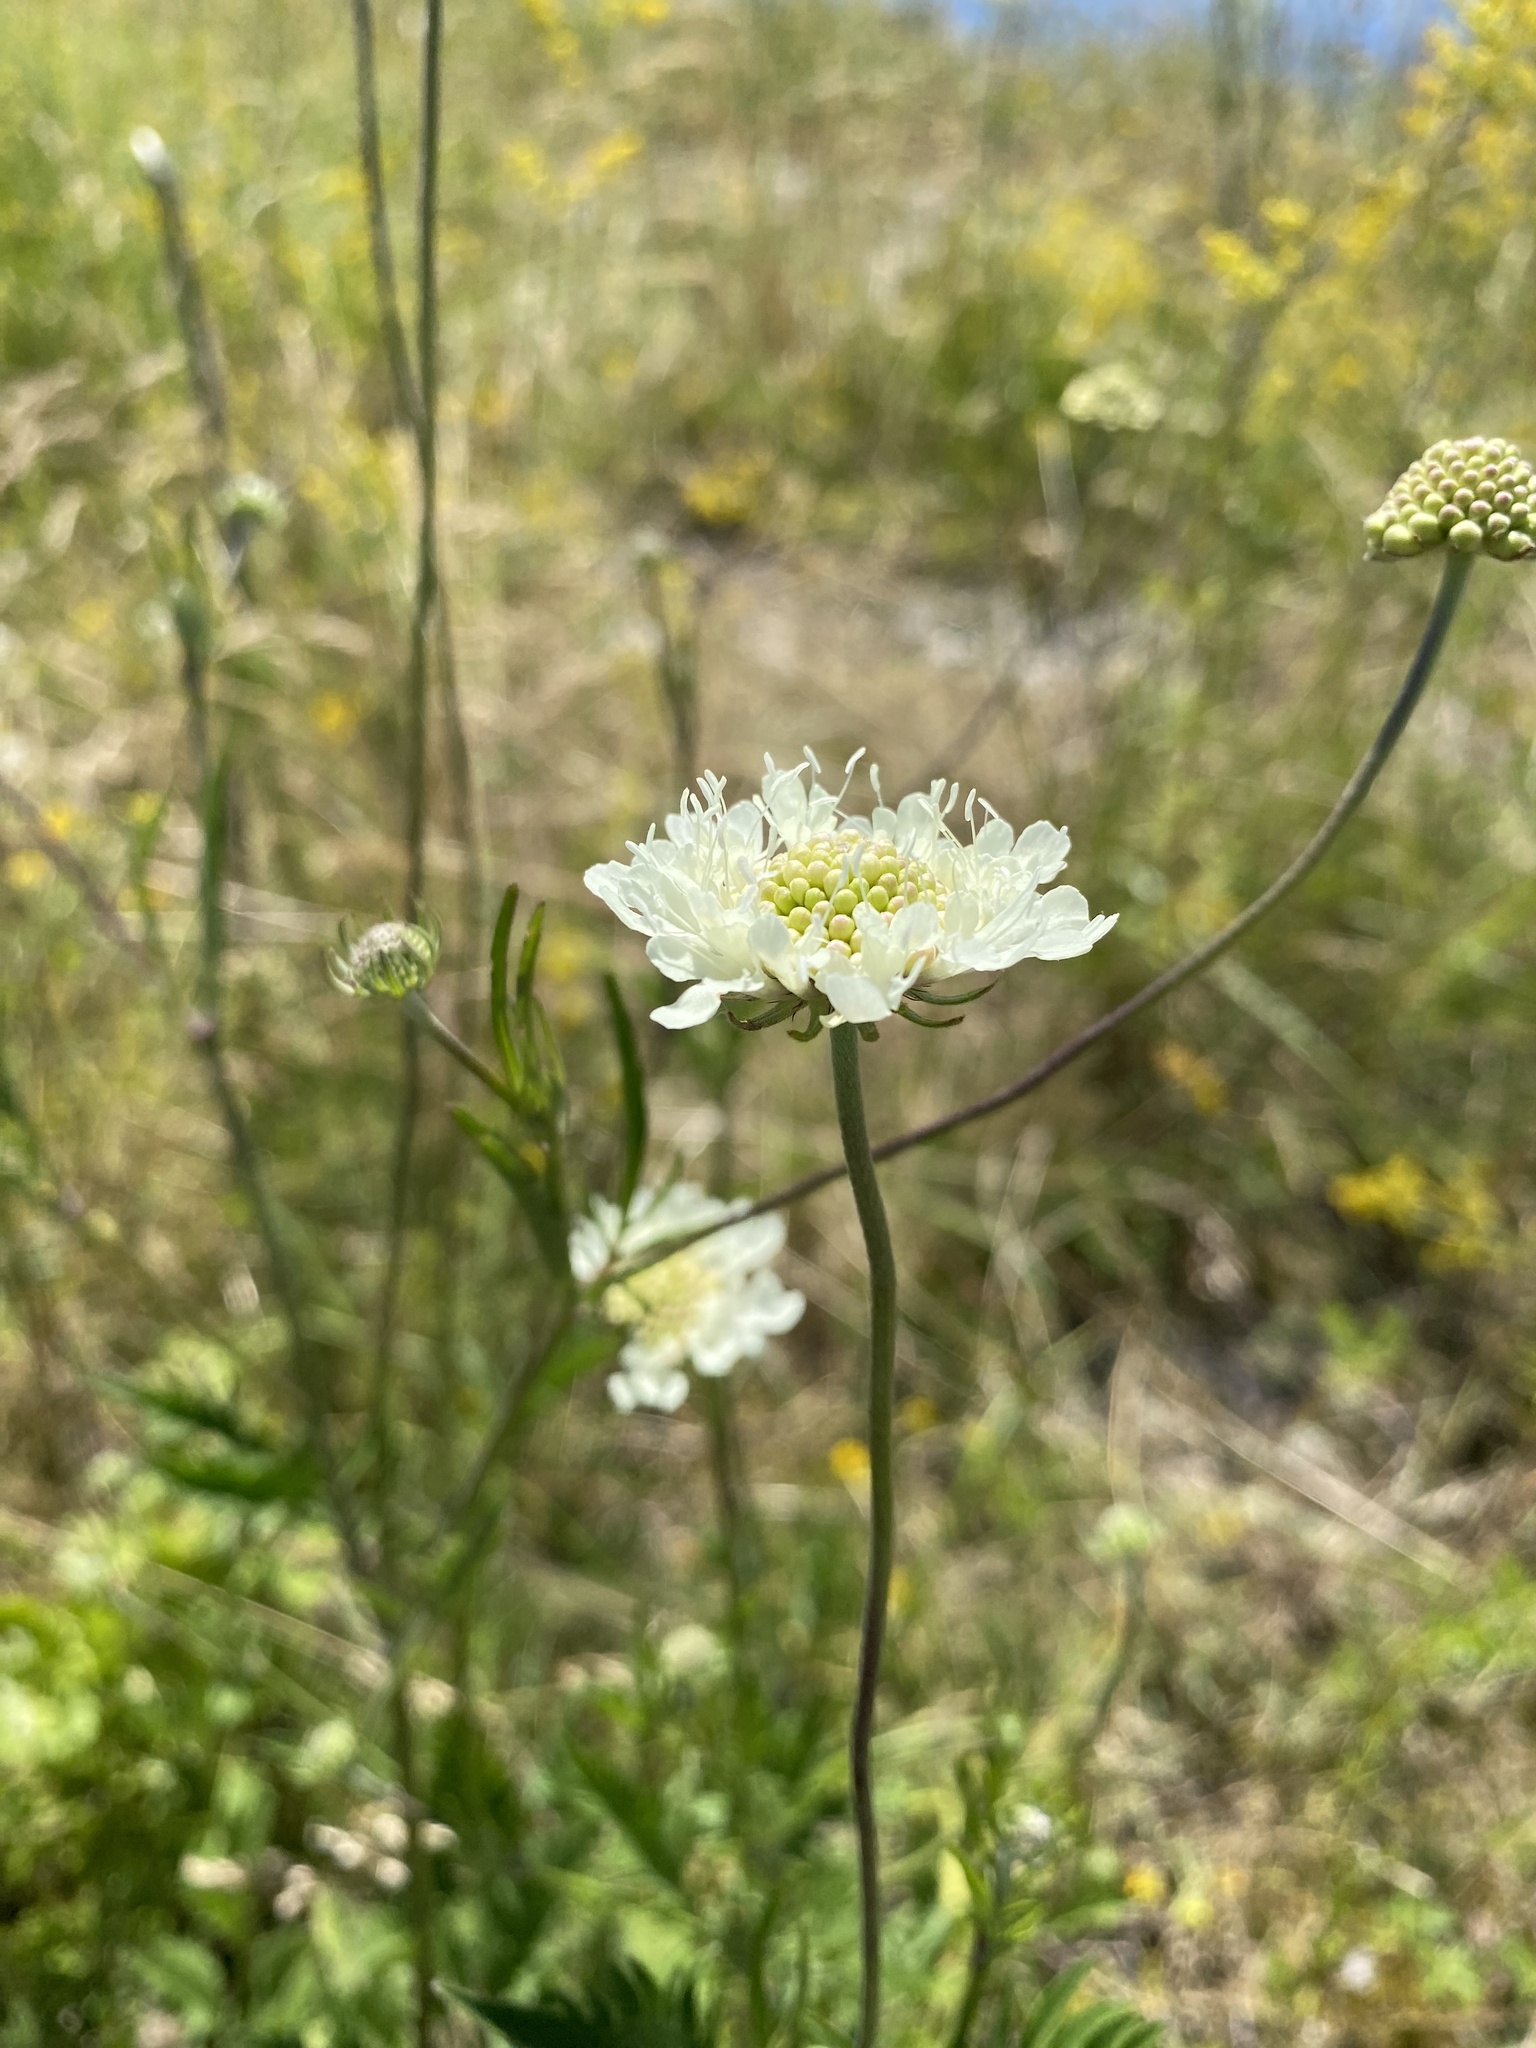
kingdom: Plantae
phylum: Tracheophyta
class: Magnoliopsida
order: Dipsacales
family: Caprifoliaceae
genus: Scabiosa
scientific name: Scabiosa ochroleuca
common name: Cream pincushions
